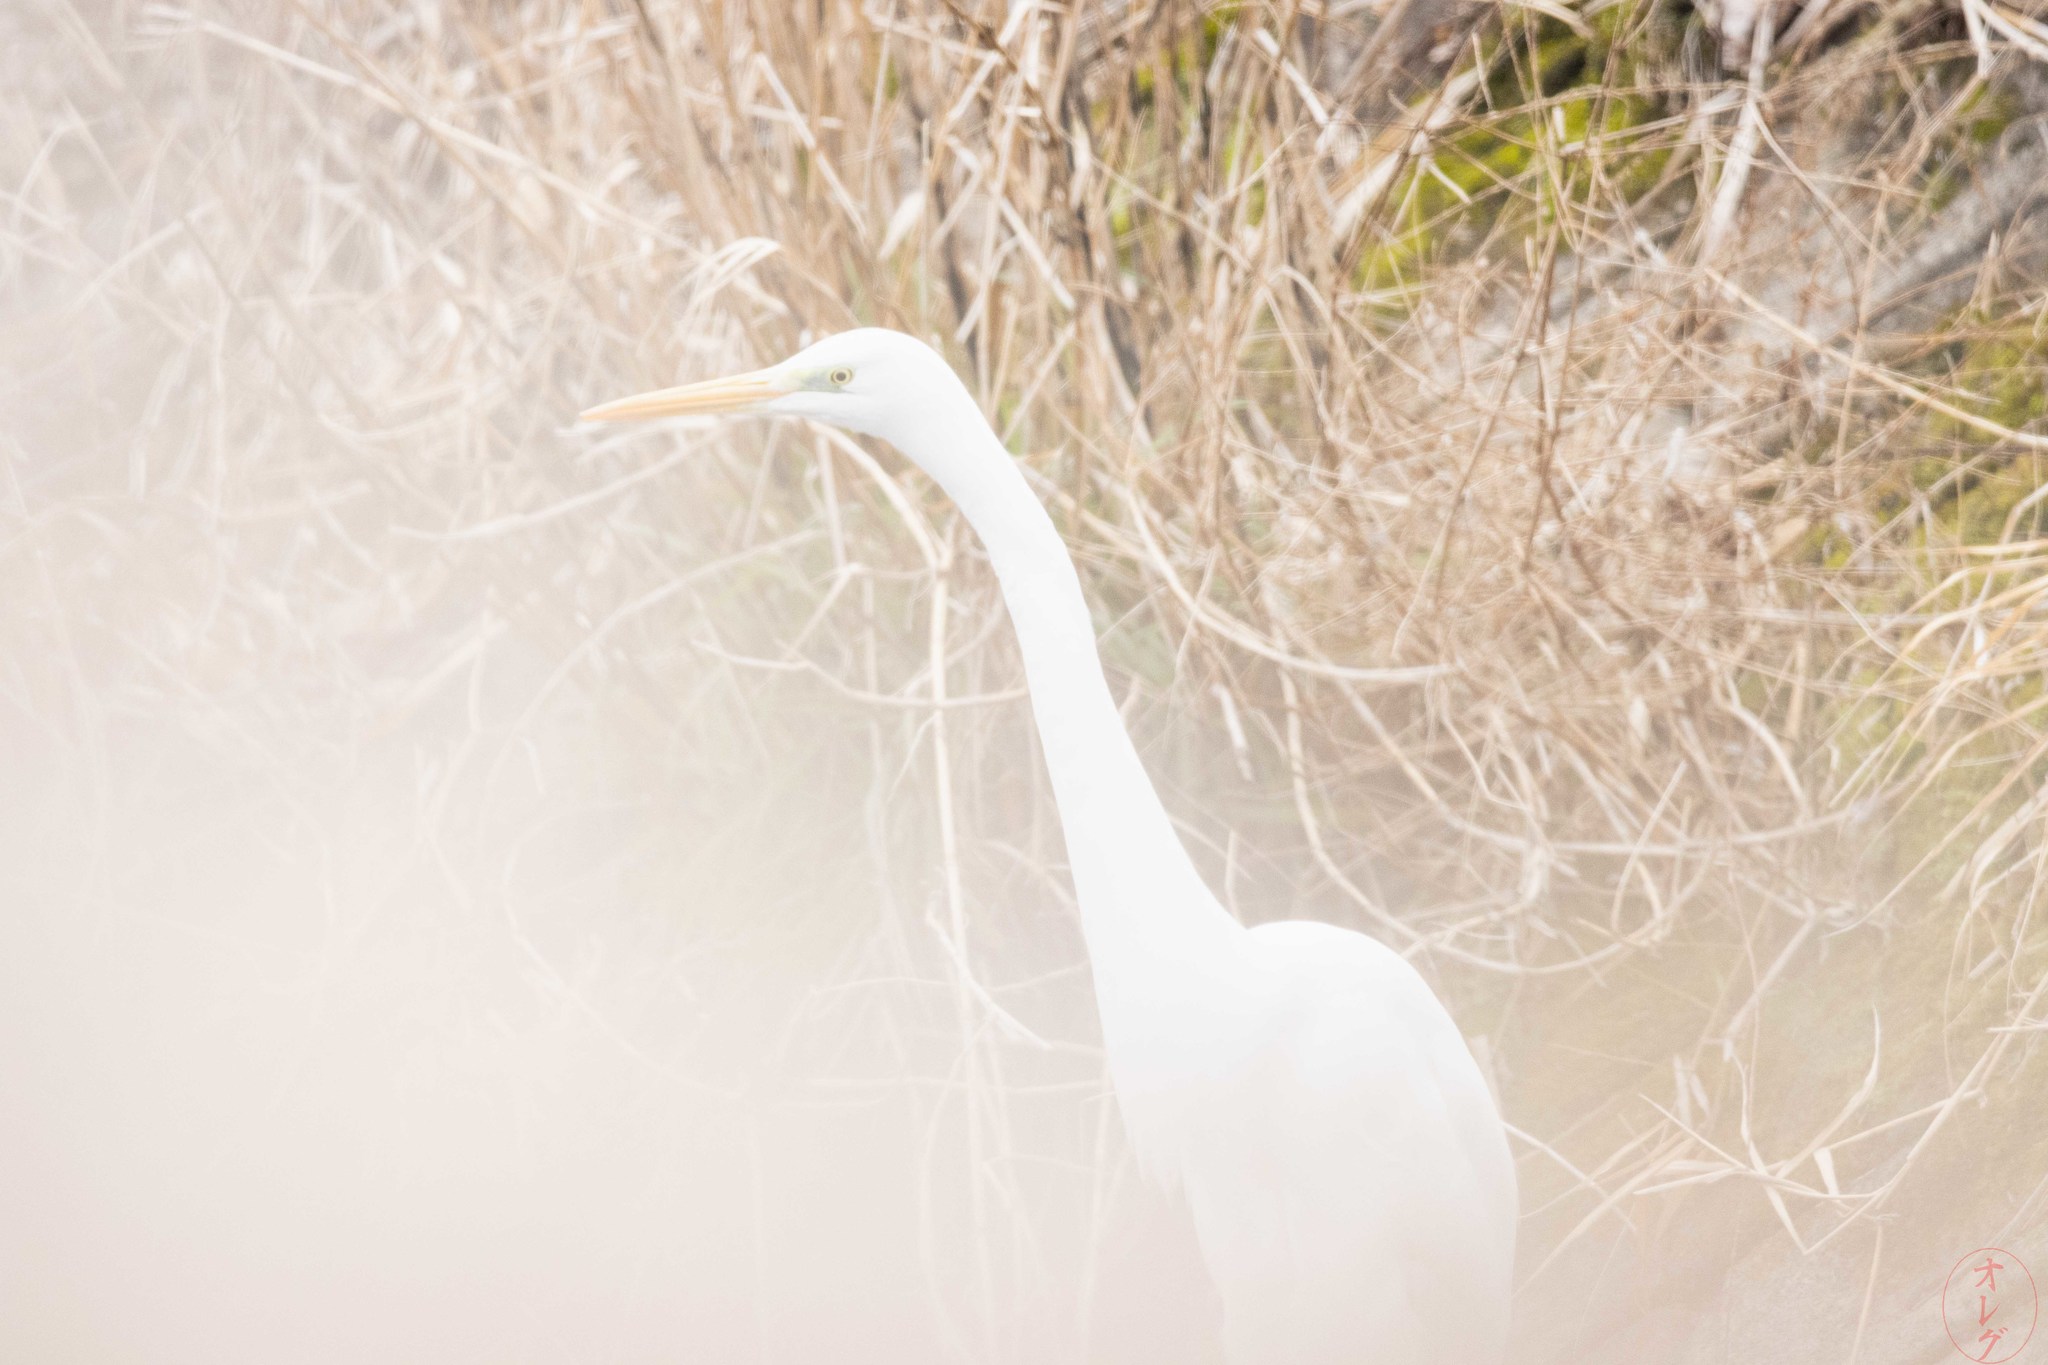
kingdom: Animalia
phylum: Chordata
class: Aves
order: Pelecaniformes
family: Ardeidae
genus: Ardea
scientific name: Ardea alba
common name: Great egret
